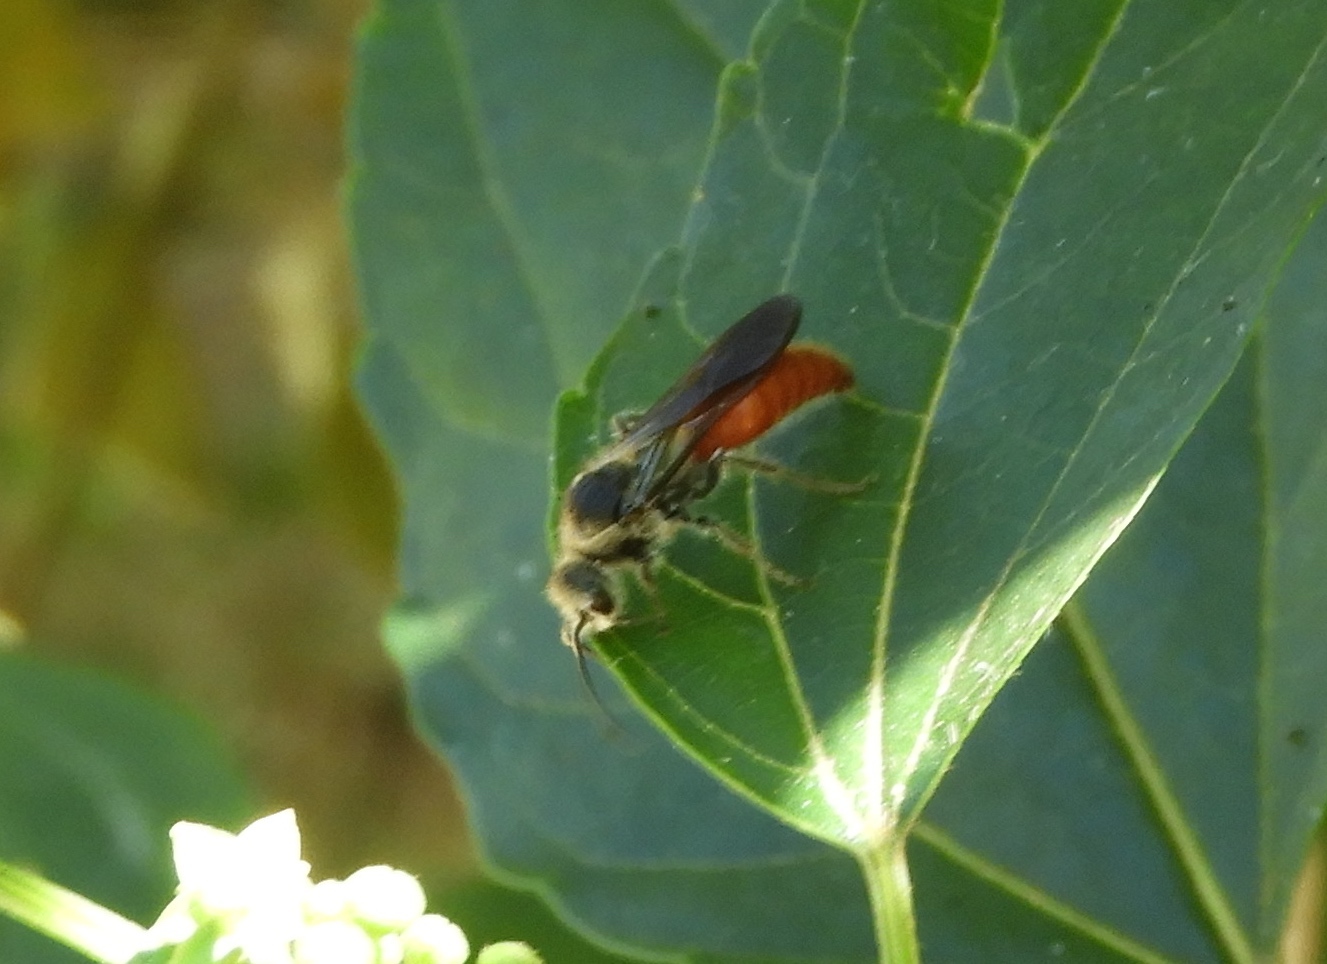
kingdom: Animalia
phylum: Arthropoda
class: Insecta
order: Hymenoptera
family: Mutillidae
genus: Timulla
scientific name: Timulla
